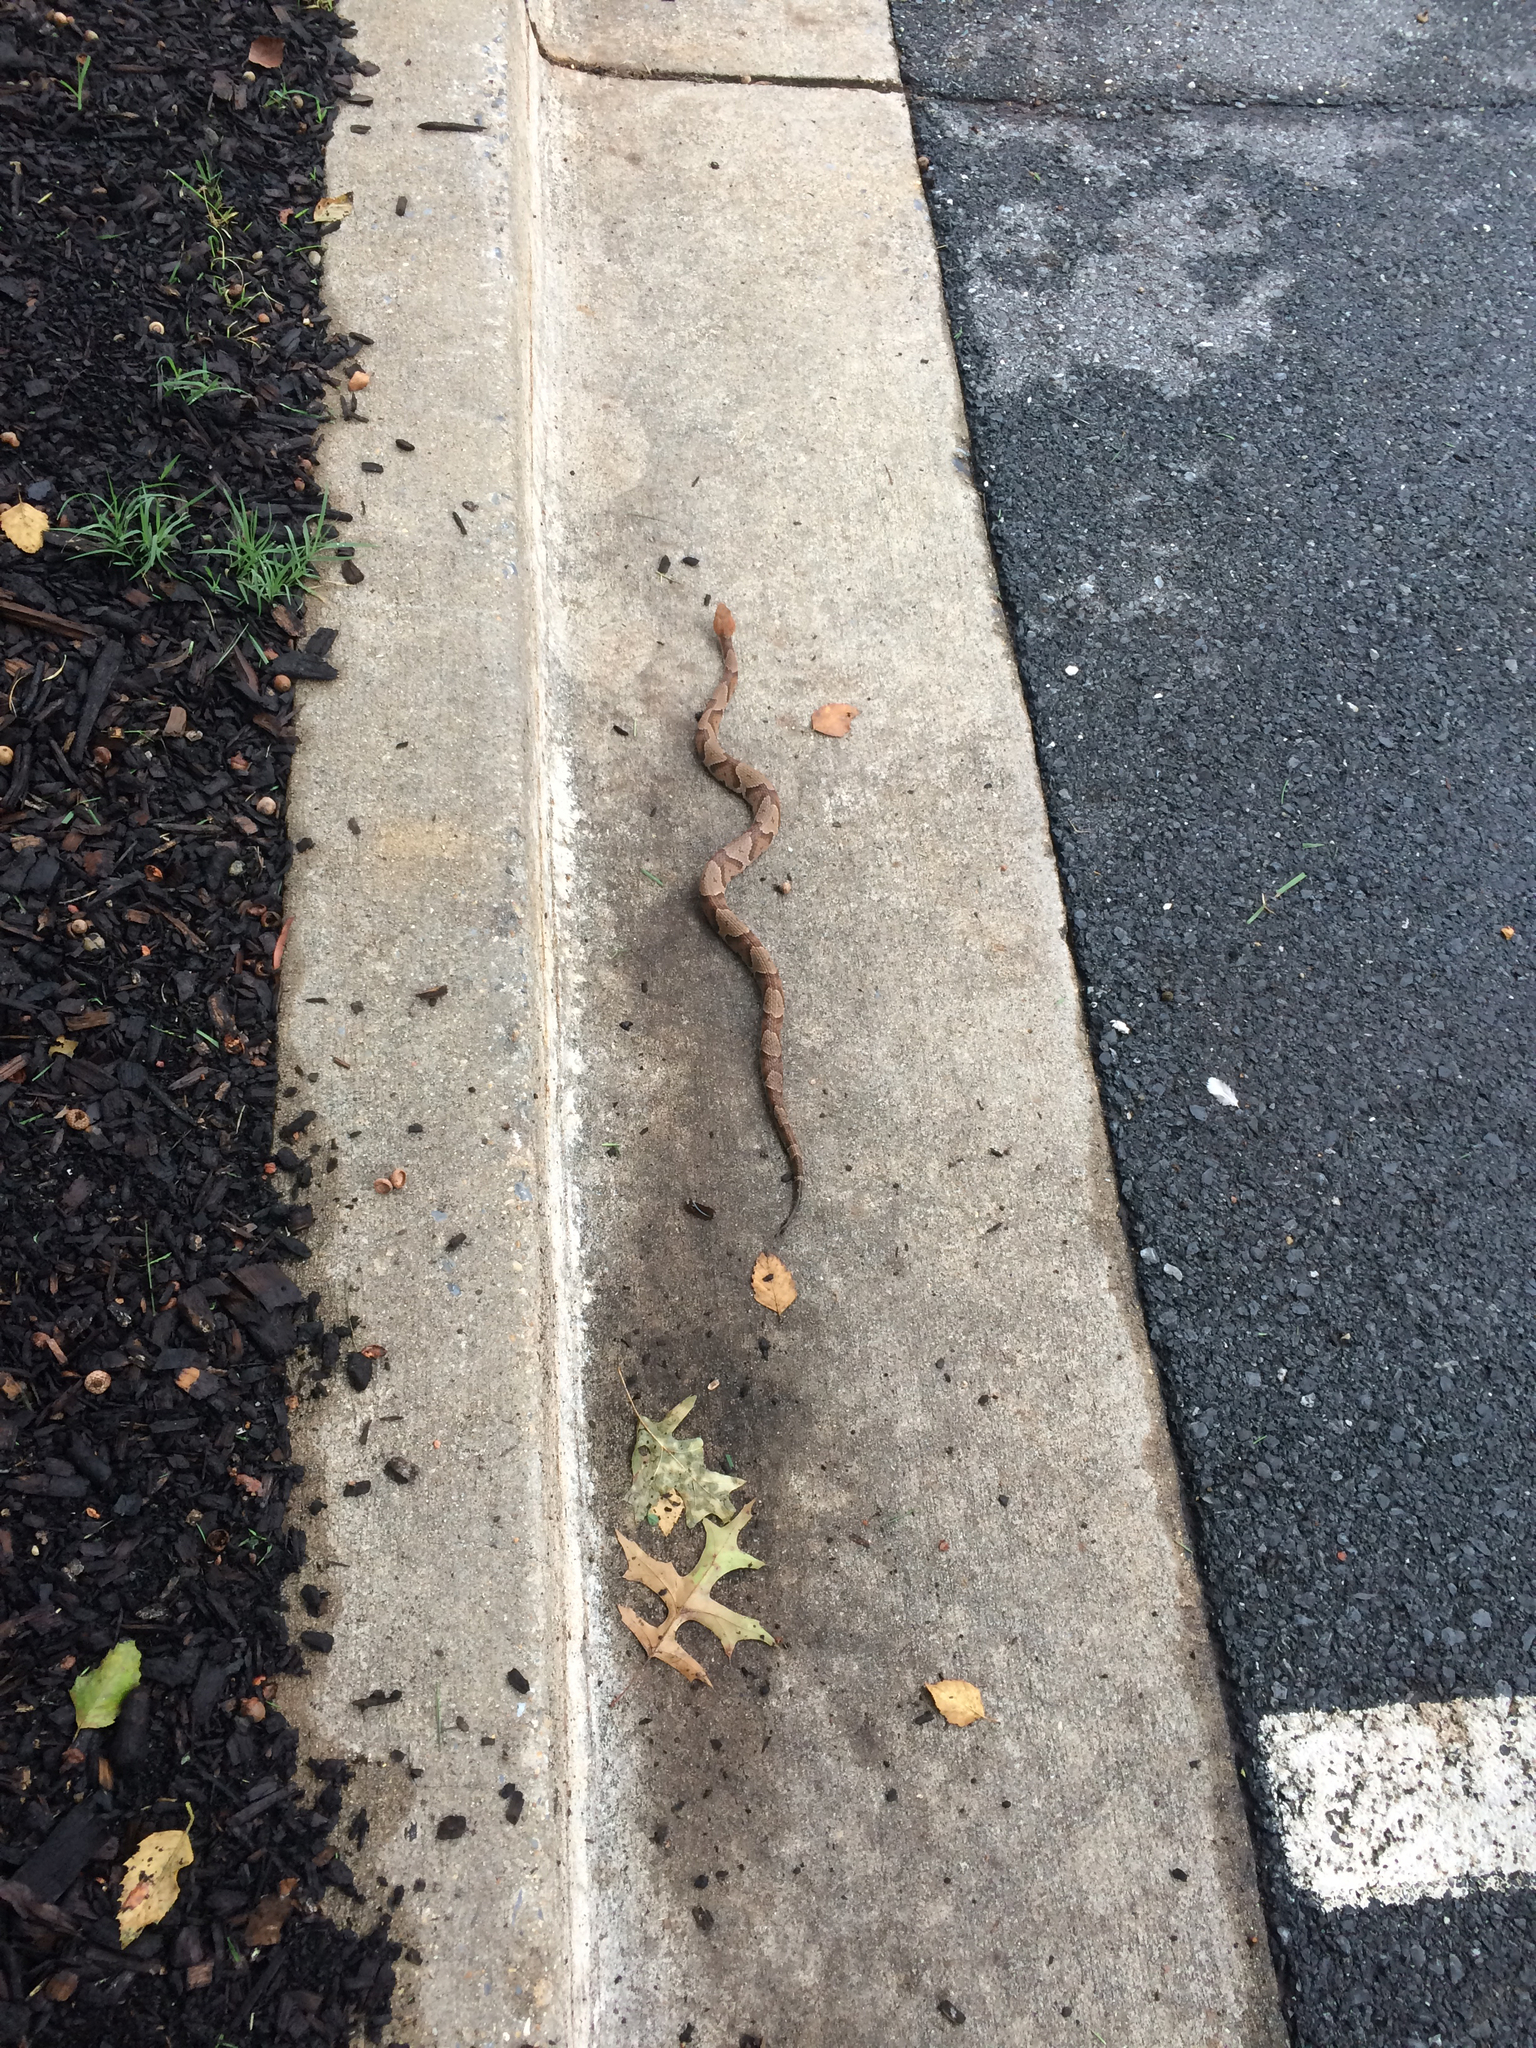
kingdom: Animalia
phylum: Chordata
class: Squamata
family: Viperidae
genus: Agkistrodon
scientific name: Agkistrodon contortrix
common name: Northern copperhead
